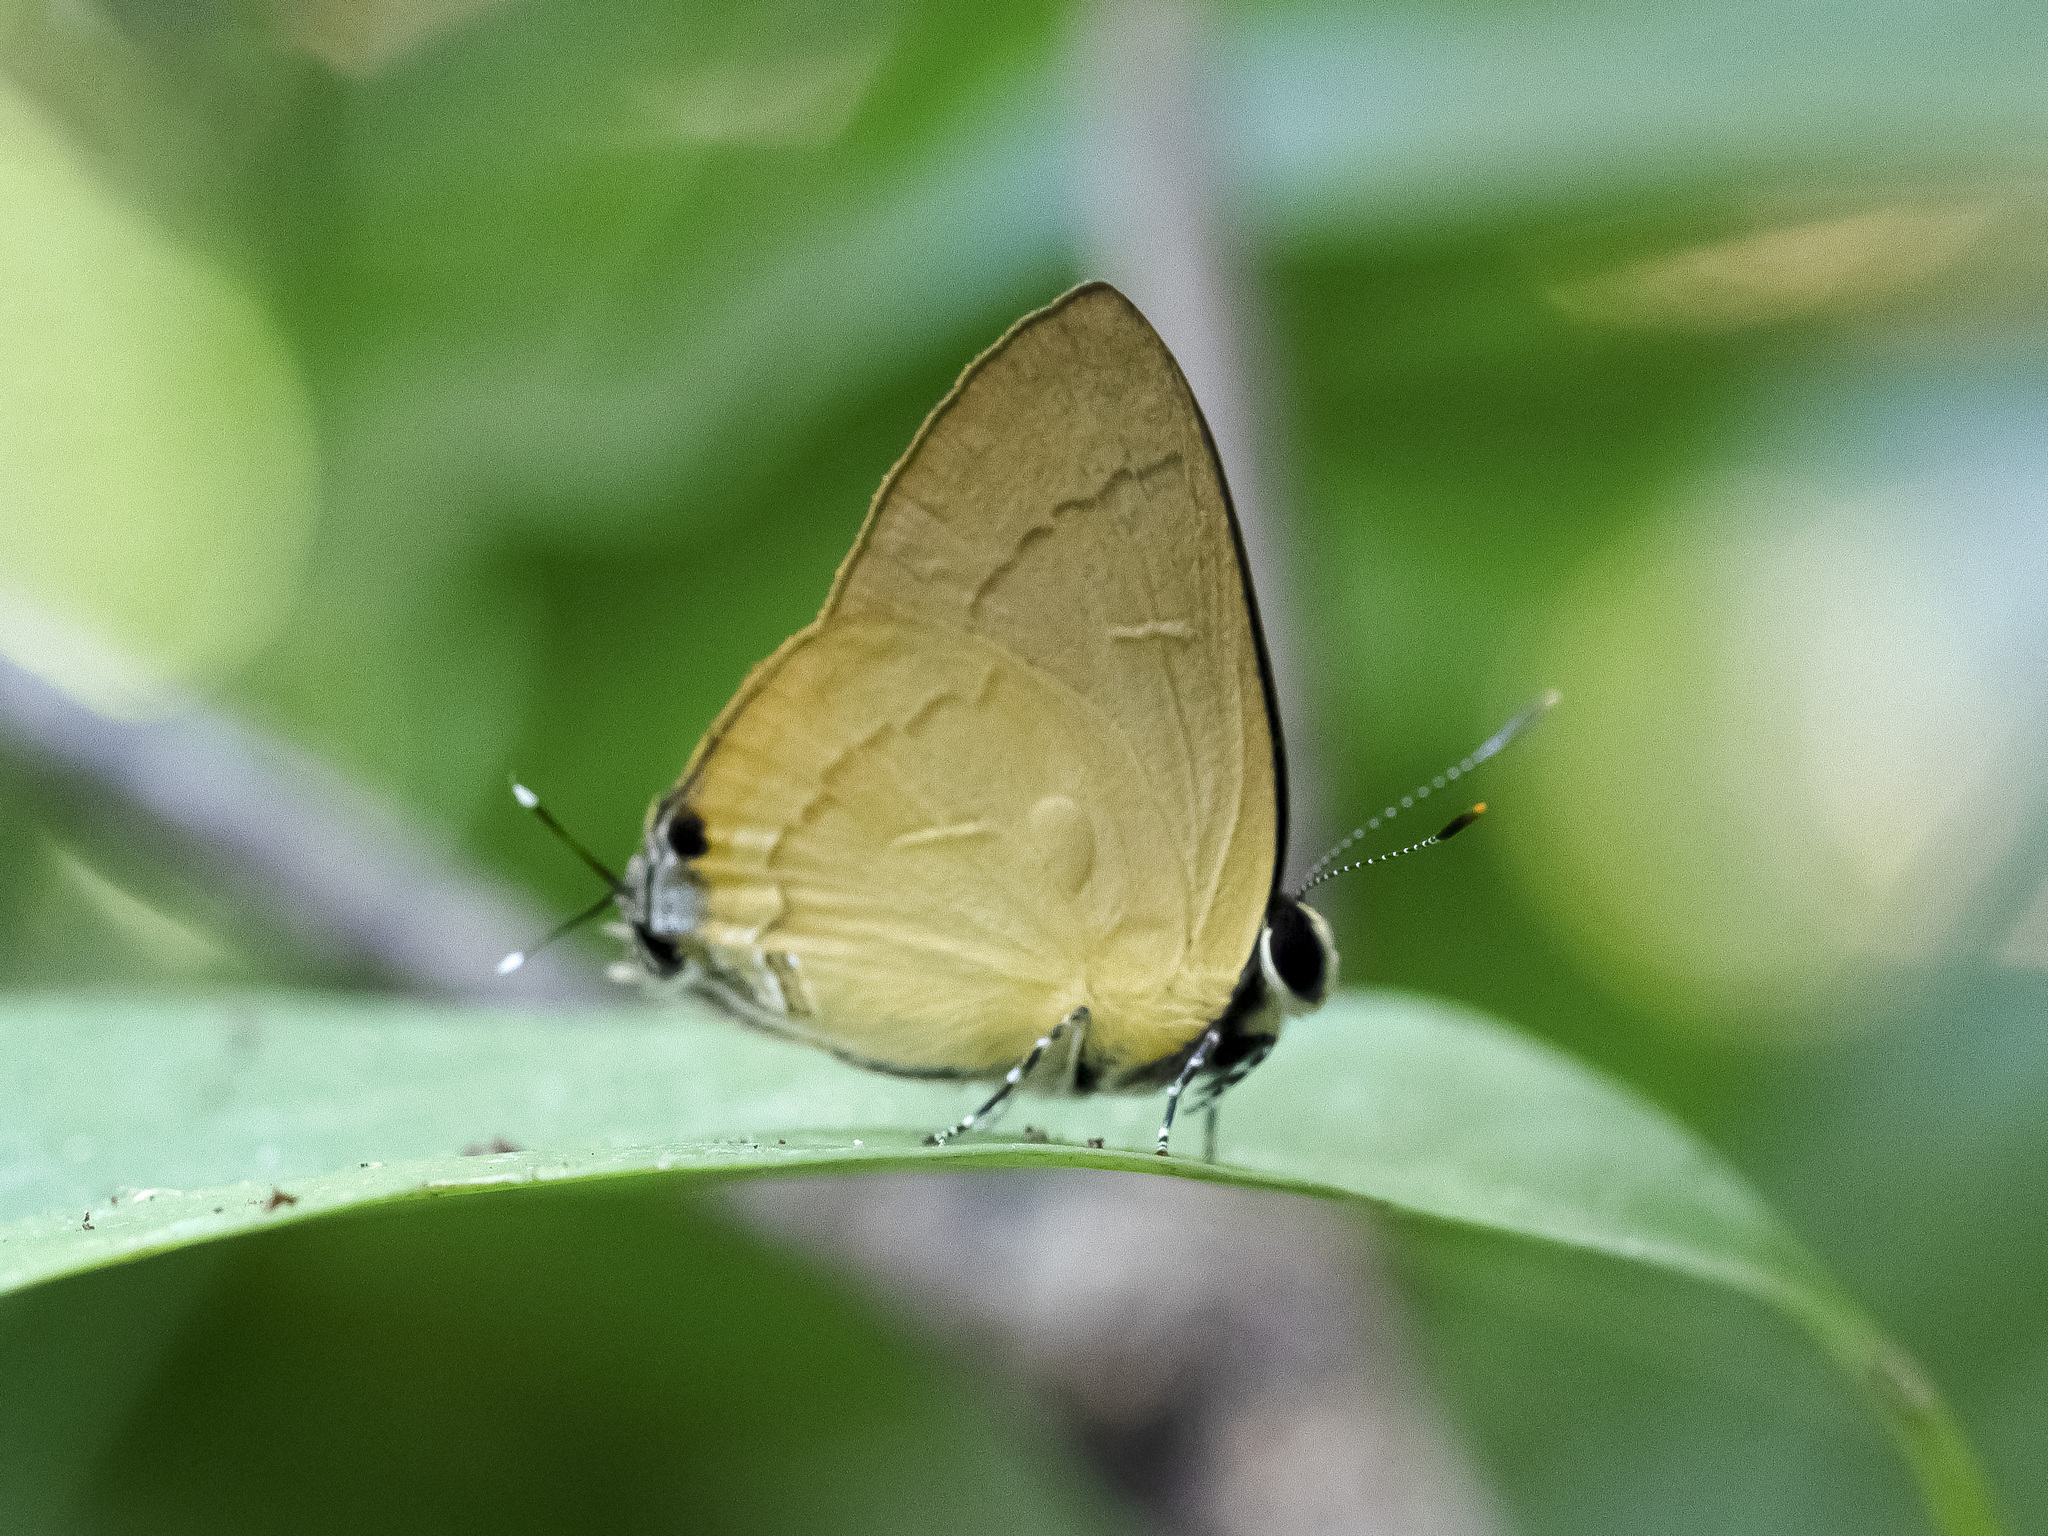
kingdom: Animalia
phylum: Arthropoda
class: Insecta
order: Lepidoptera
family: Lycaenidae
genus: Rapala
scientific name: Rapala suffusa
